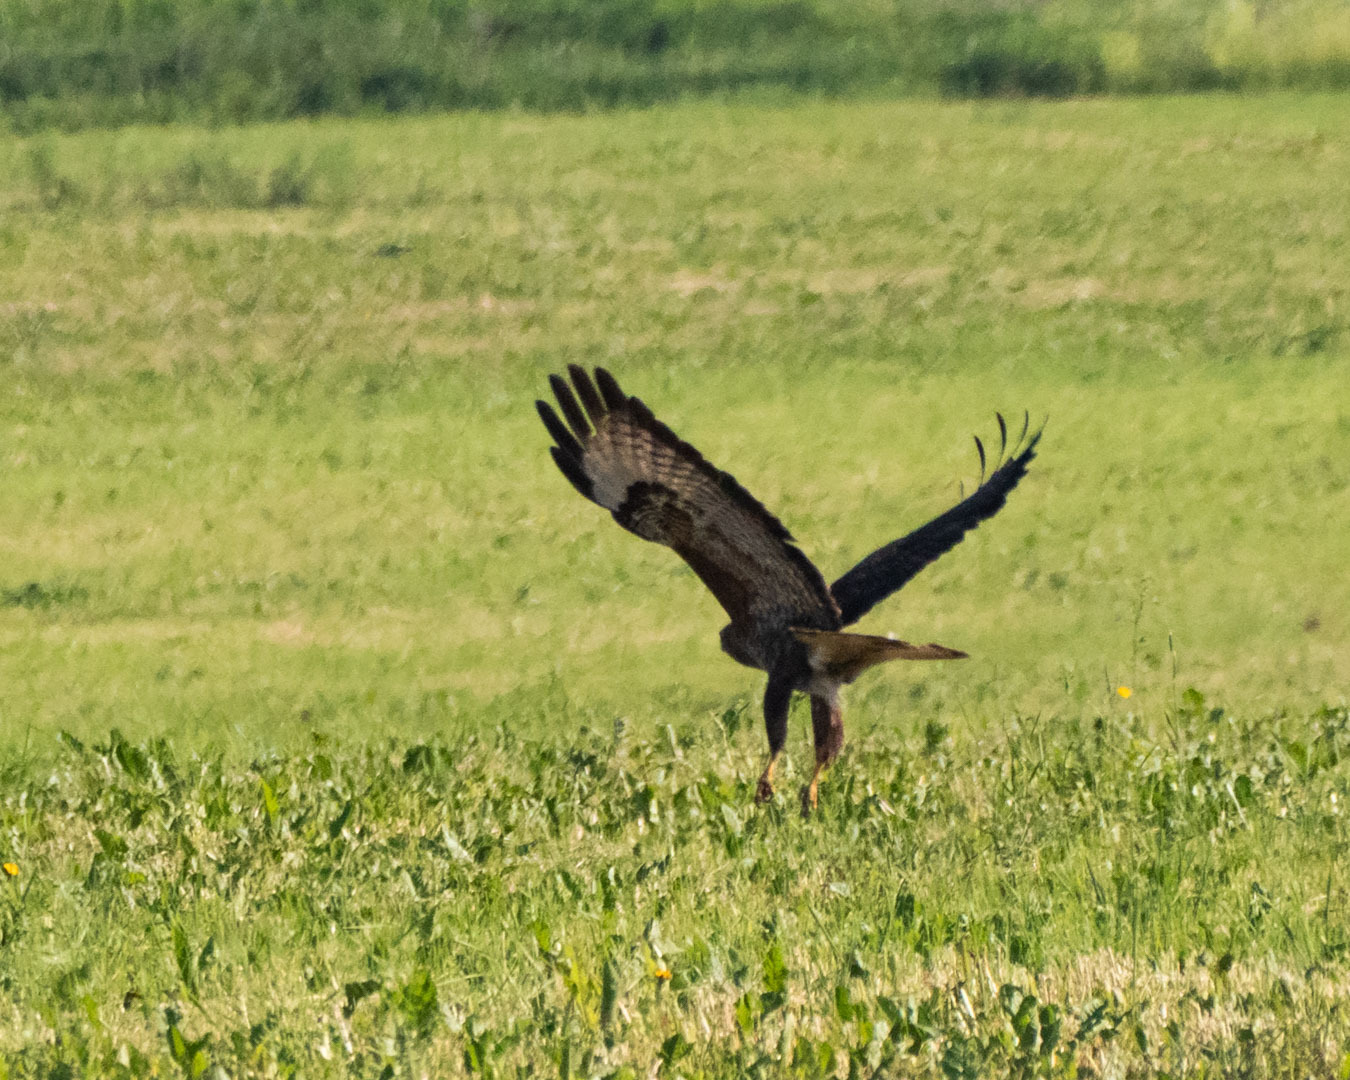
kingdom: Animalia
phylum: Chordata
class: Aves
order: Accipitriformes
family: Accipitridae
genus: Buteo
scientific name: Buteo buteo
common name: Common buzzard
